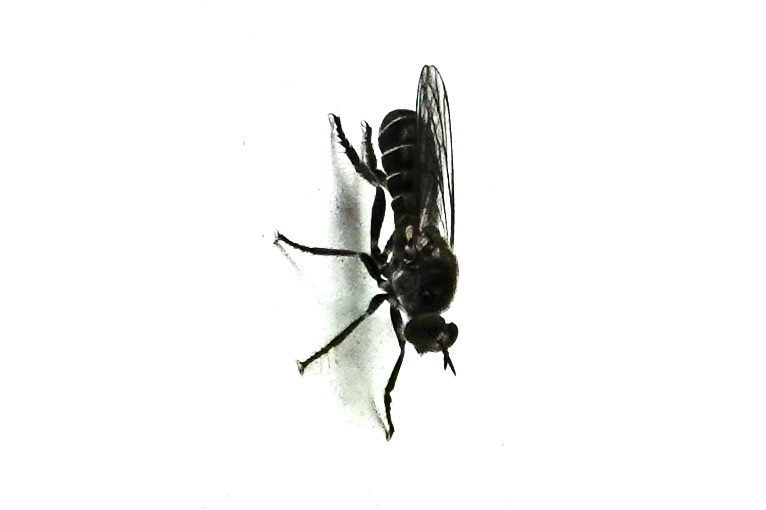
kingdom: Animalia
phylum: Arthropoda
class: Insecta
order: Diptera
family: Asilidae
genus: Atomosia
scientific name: Atomosia puella
